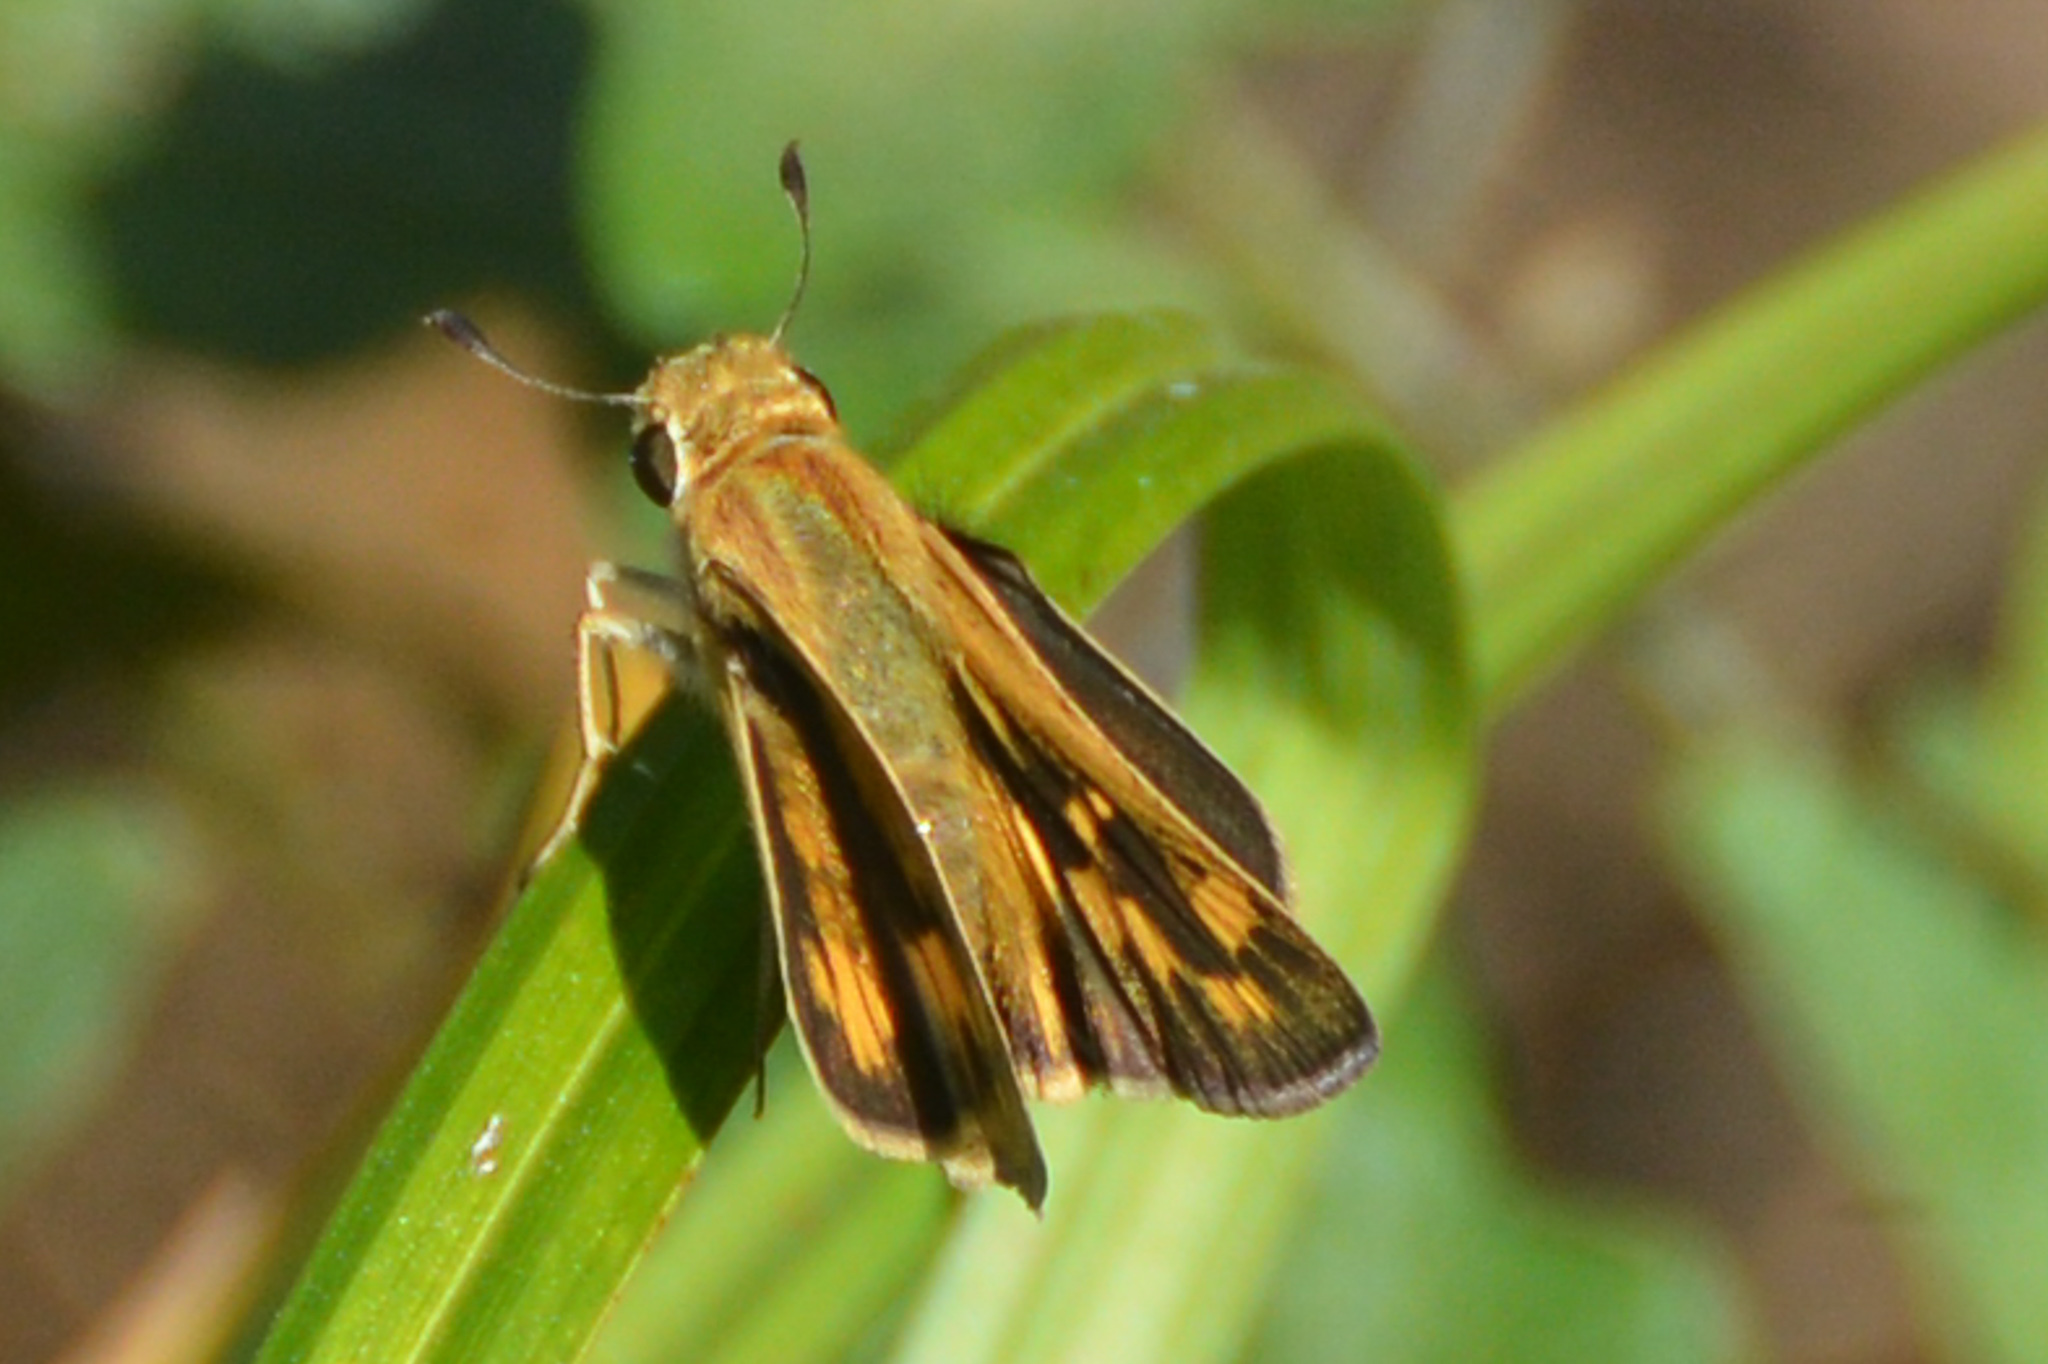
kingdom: Animalia
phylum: Arthropoda
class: Insecta
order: Lepidoptera
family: Hesperiidae
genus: Hylephila
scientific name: Hylephila phyleus
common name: Fiery skipper
